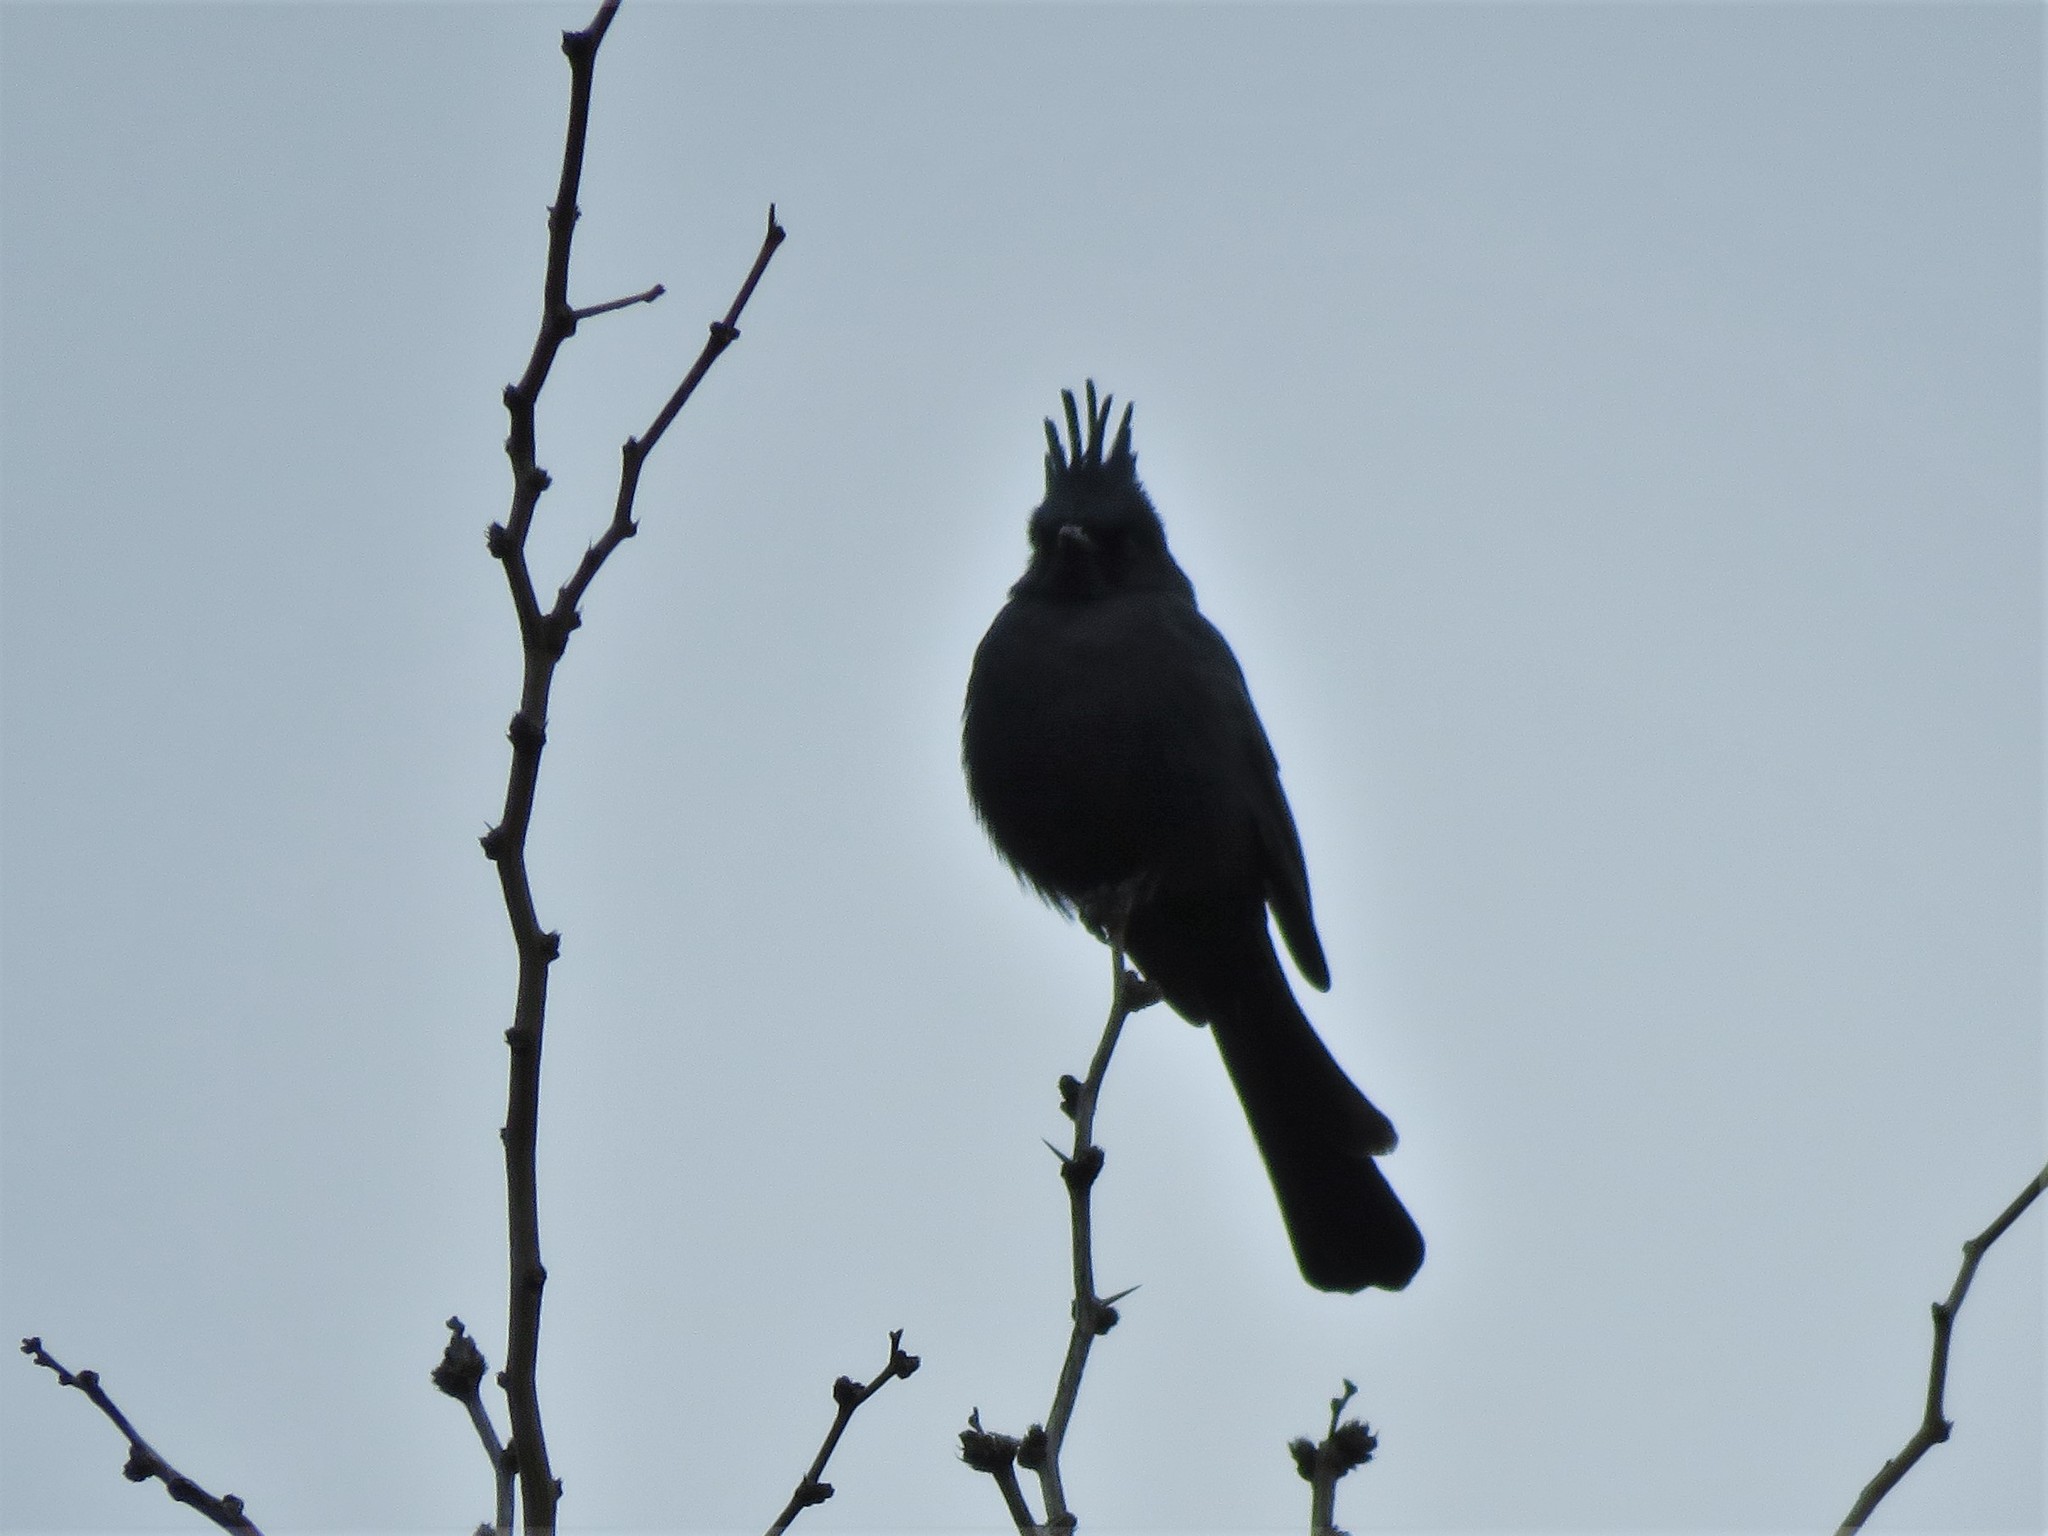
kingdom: Animalia
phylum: Chordata
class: Aves
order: Passeriformes
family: Ptilogonatidae
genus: Phainopepla
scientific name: Phainopepla nitens
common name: Phainopepla
